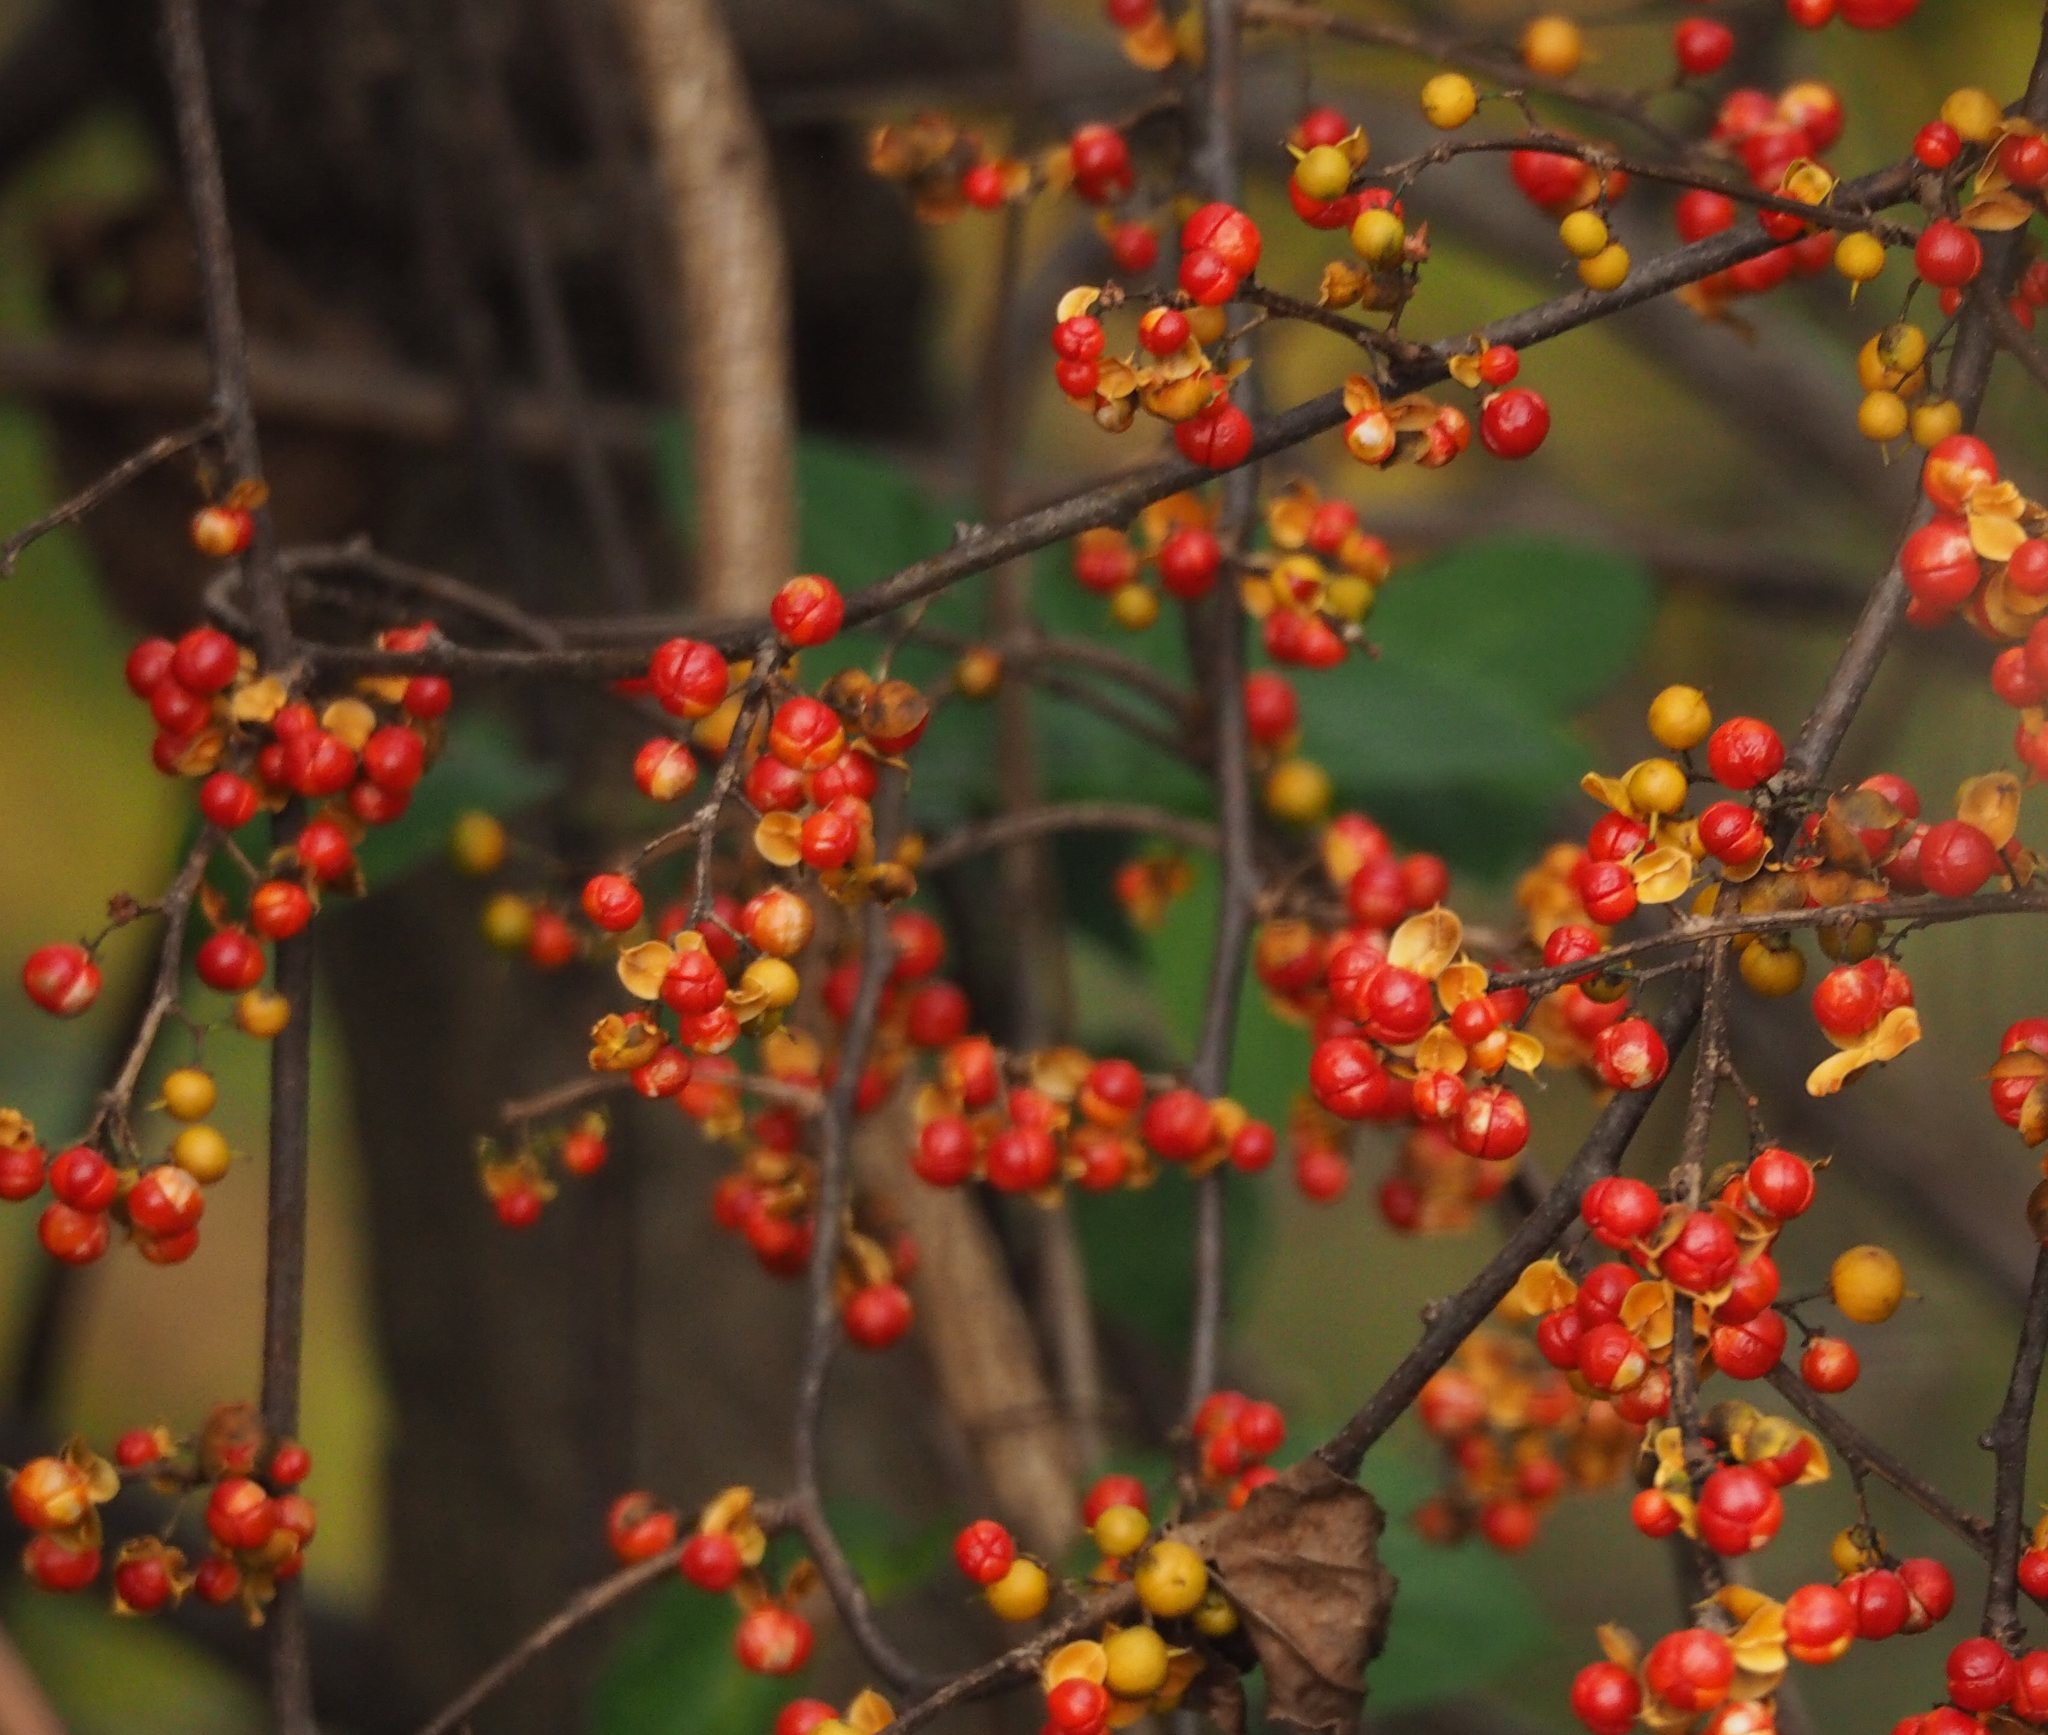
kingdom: Plantae
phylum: Tracheophyta
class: Magnoliopsida
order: Celastrales
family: Celastraceae
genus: Celastrus
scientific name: Celastrus orbiculatus
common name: Oriental bittersweet
